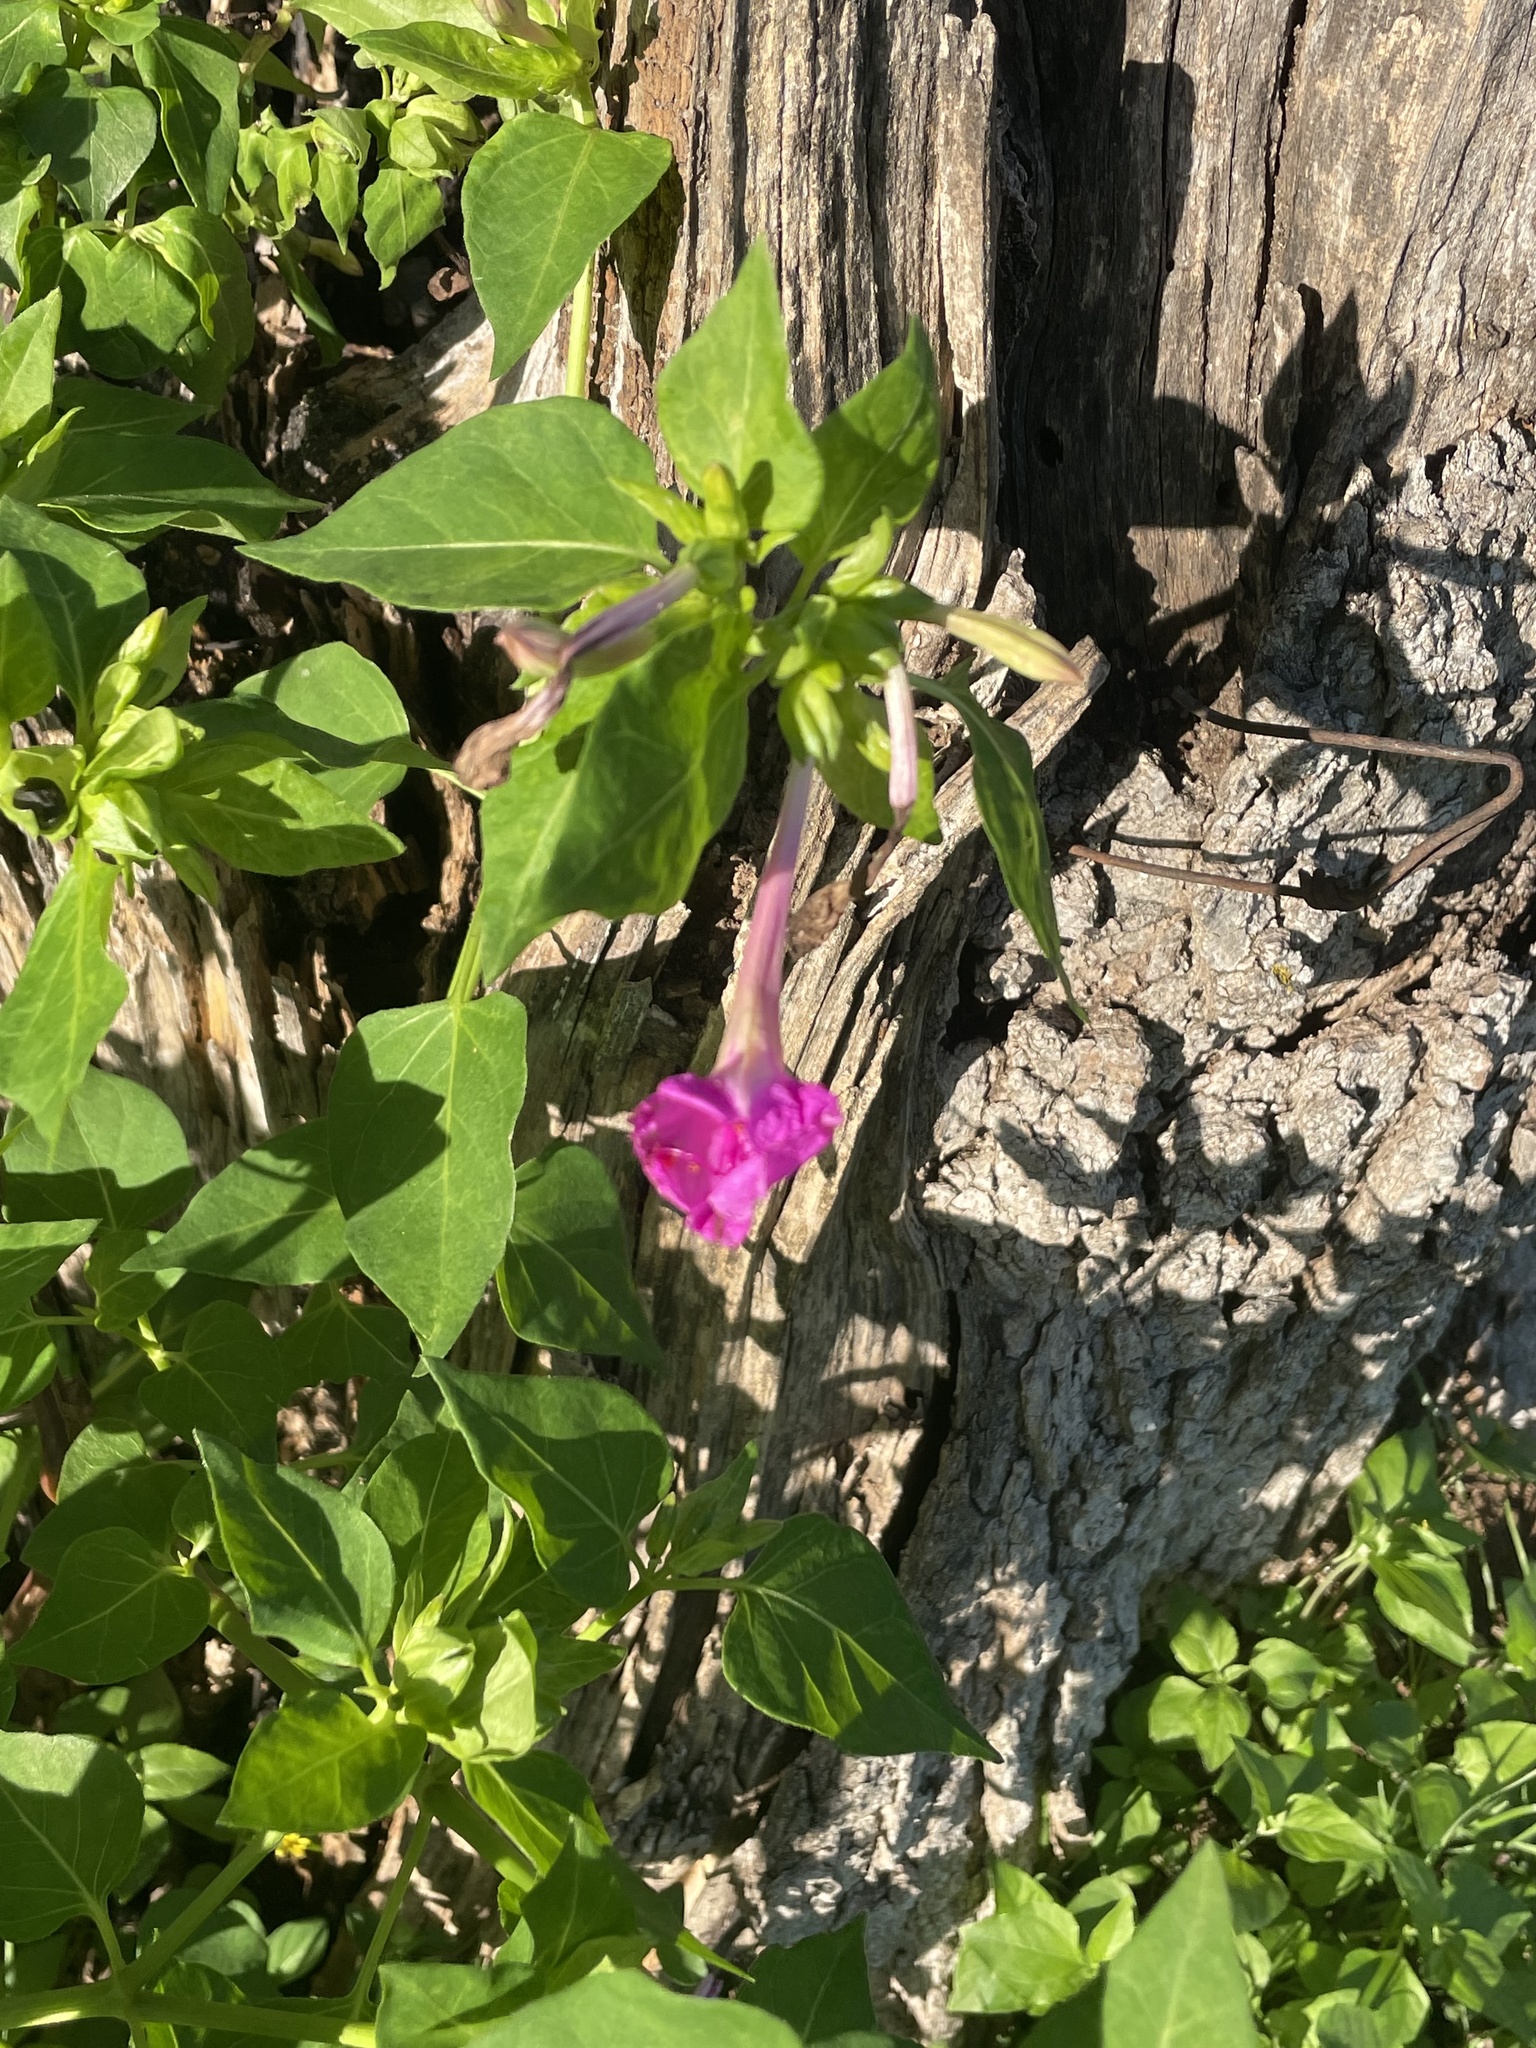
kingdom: Plantae
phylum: Tracheophyta
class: Magnoliopsida
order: Caryophyllales
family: Nyctaginaceae
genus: Mirabilis
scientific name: Mirabilis jalapa
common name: Marvel-of-peru
